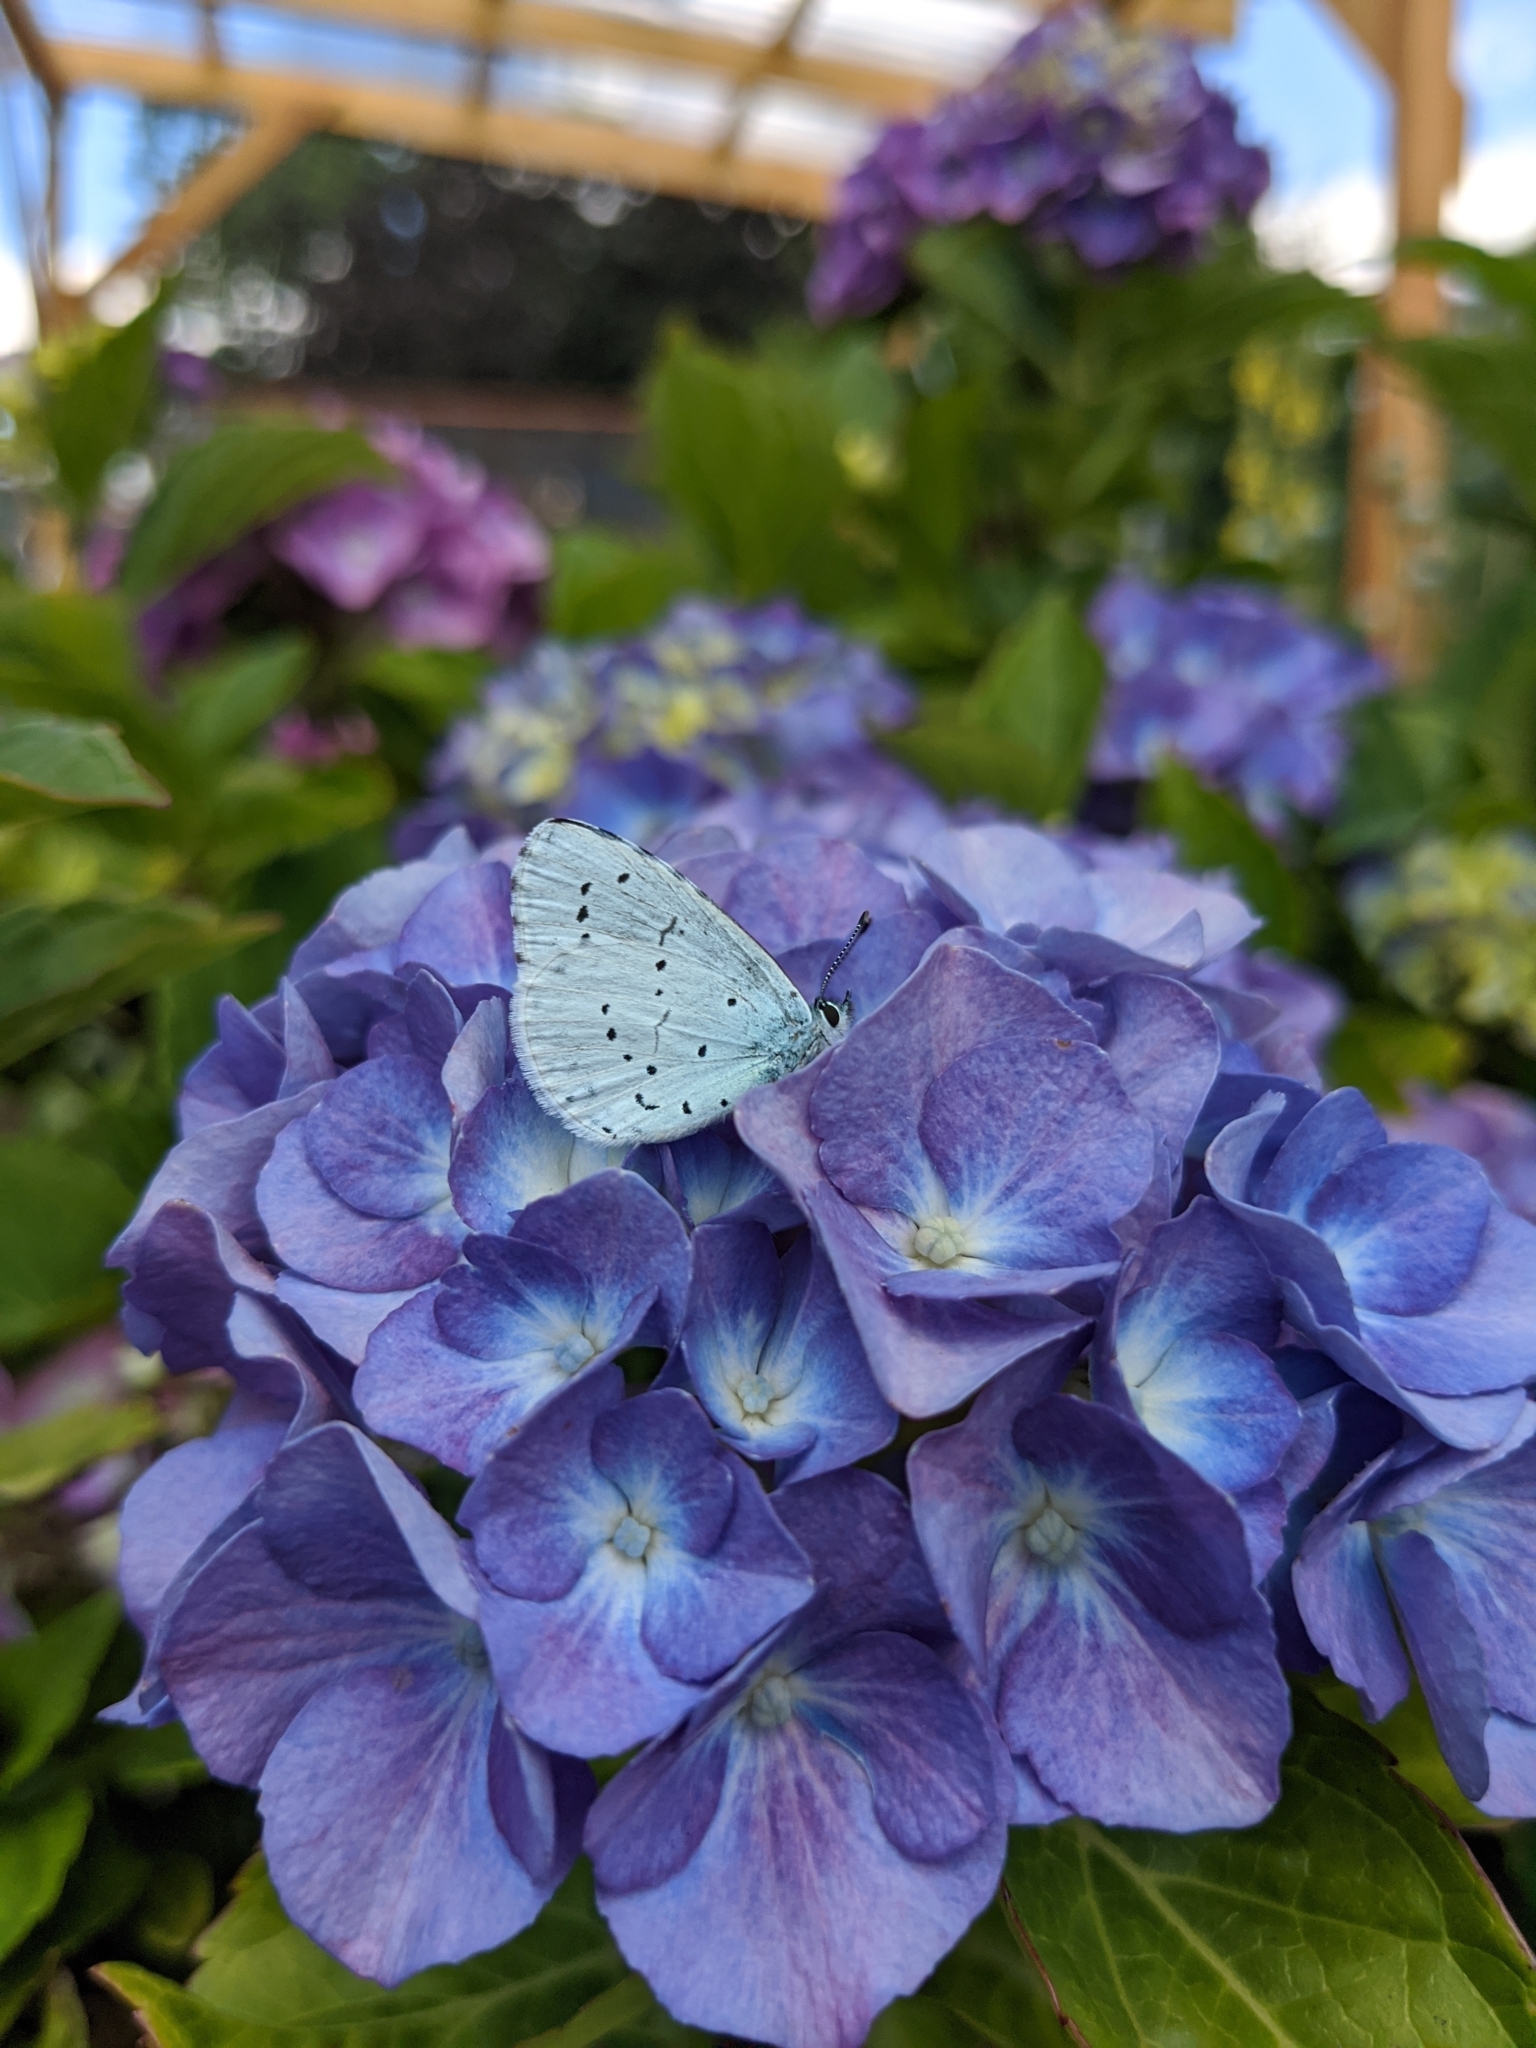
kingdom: Animalia
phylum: Arthropoda
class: Insecta
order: Lepidoptera
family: Lycaenidae
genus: Celastrina
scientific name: Celastrina argiolus
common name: Holly blue
